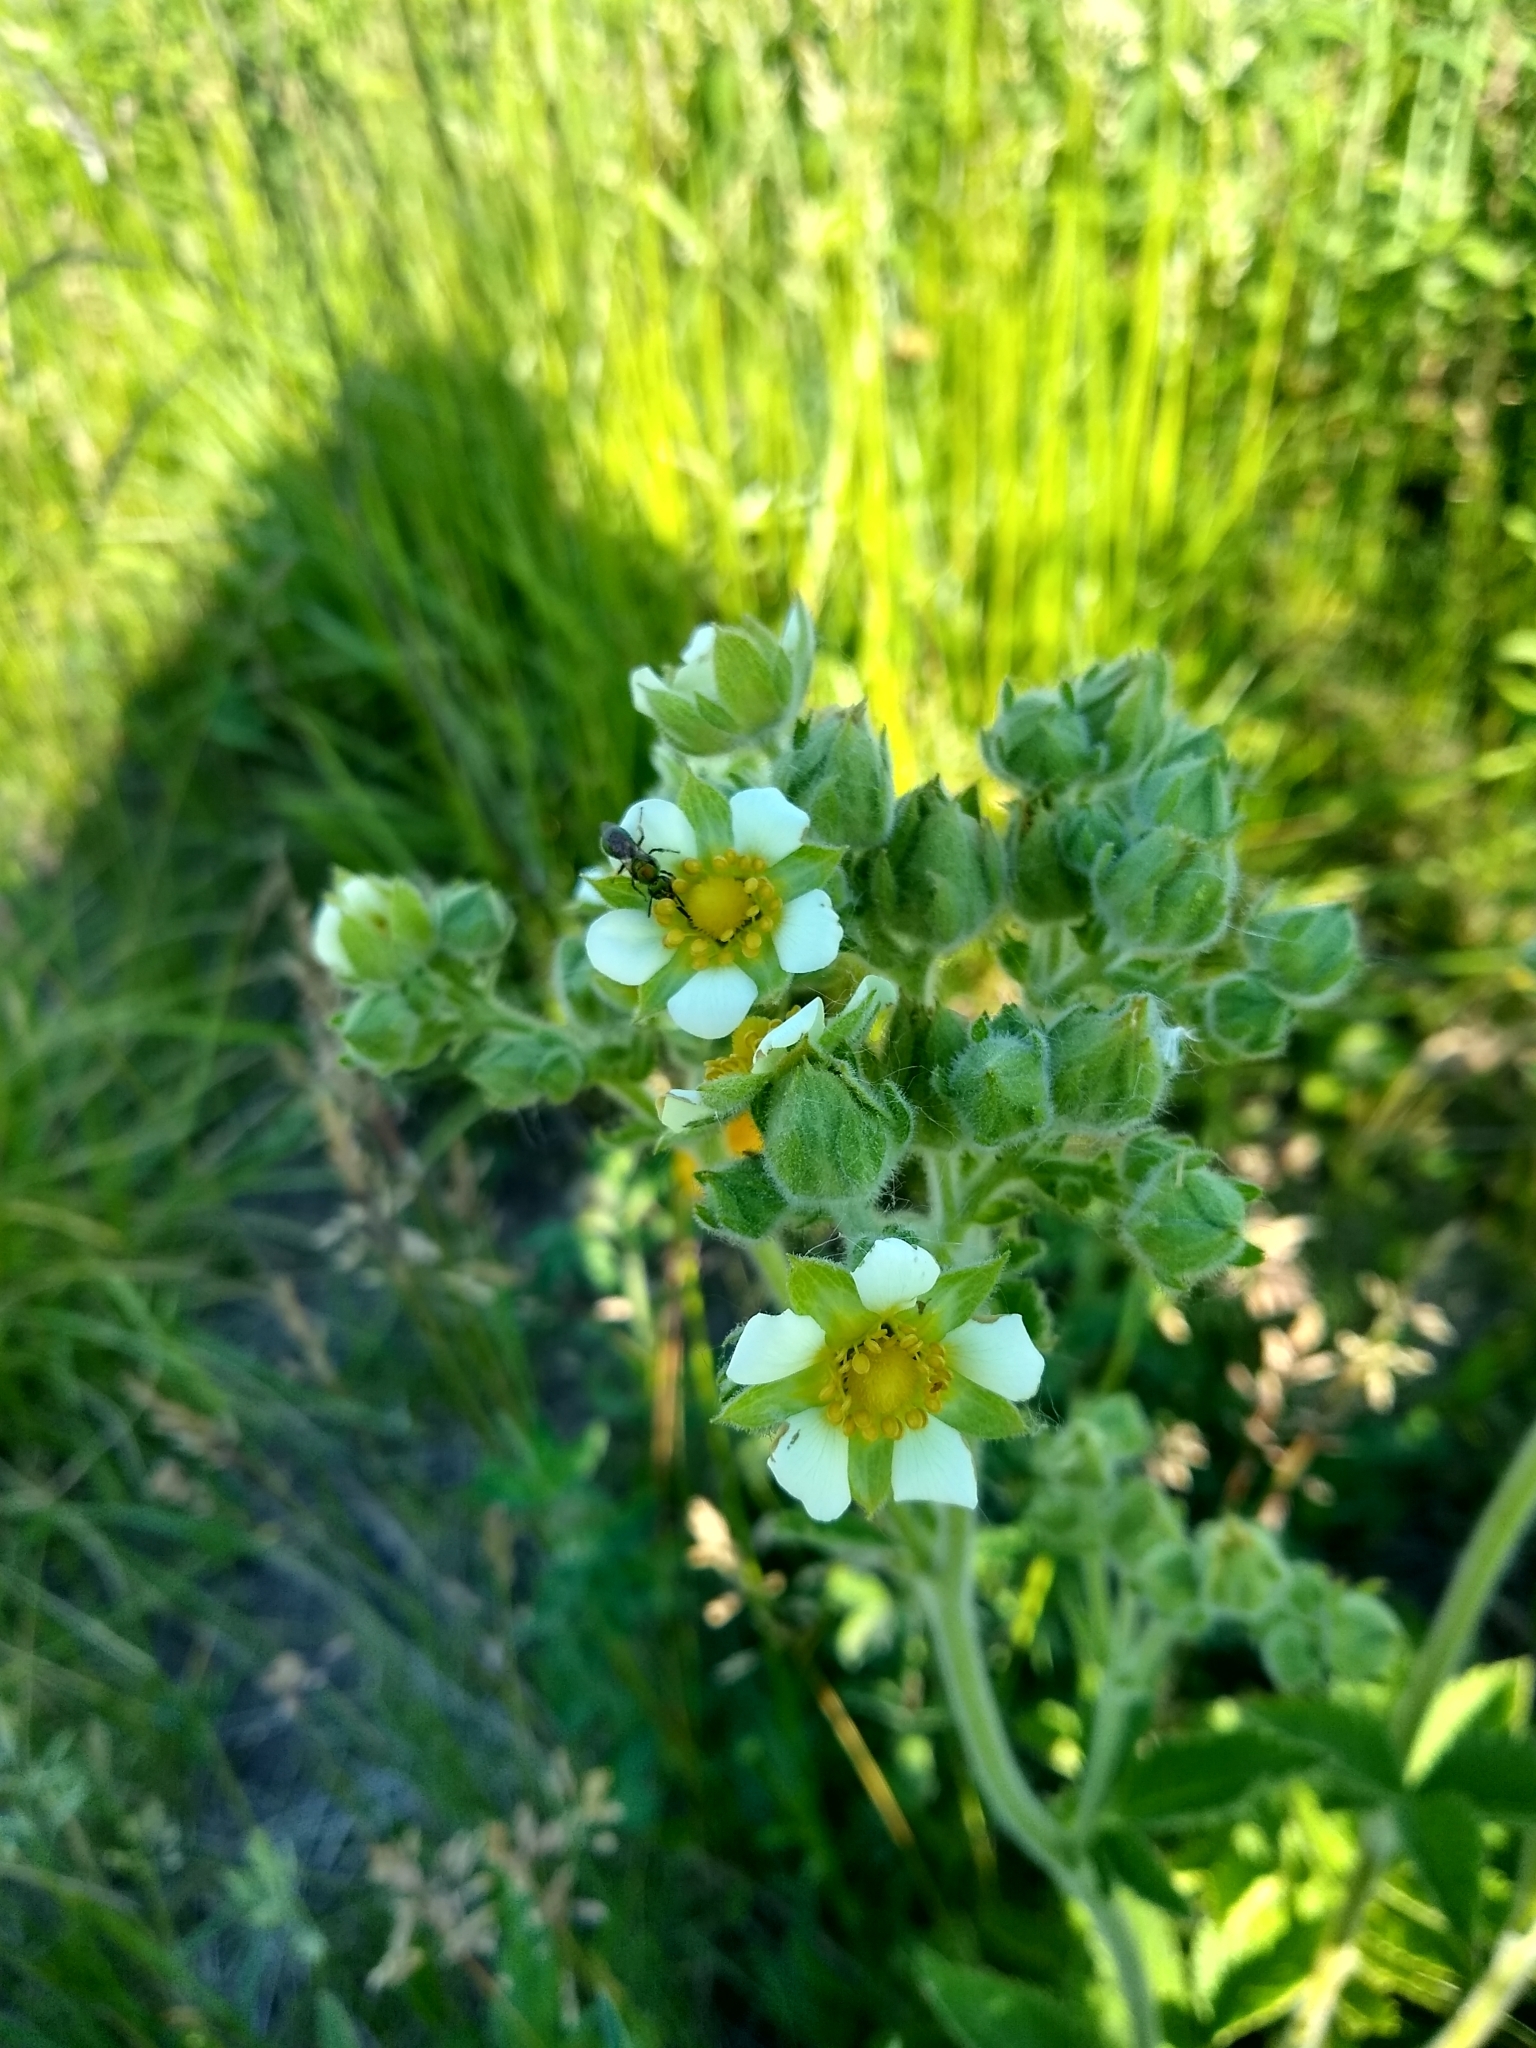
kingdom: Plantae
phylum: Tracheophyta
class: Magnoliopsida
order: Rosales
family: Rosaceae
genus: Drymocallis
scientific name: Drymocallis arguta
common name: Tall cinquefoil
